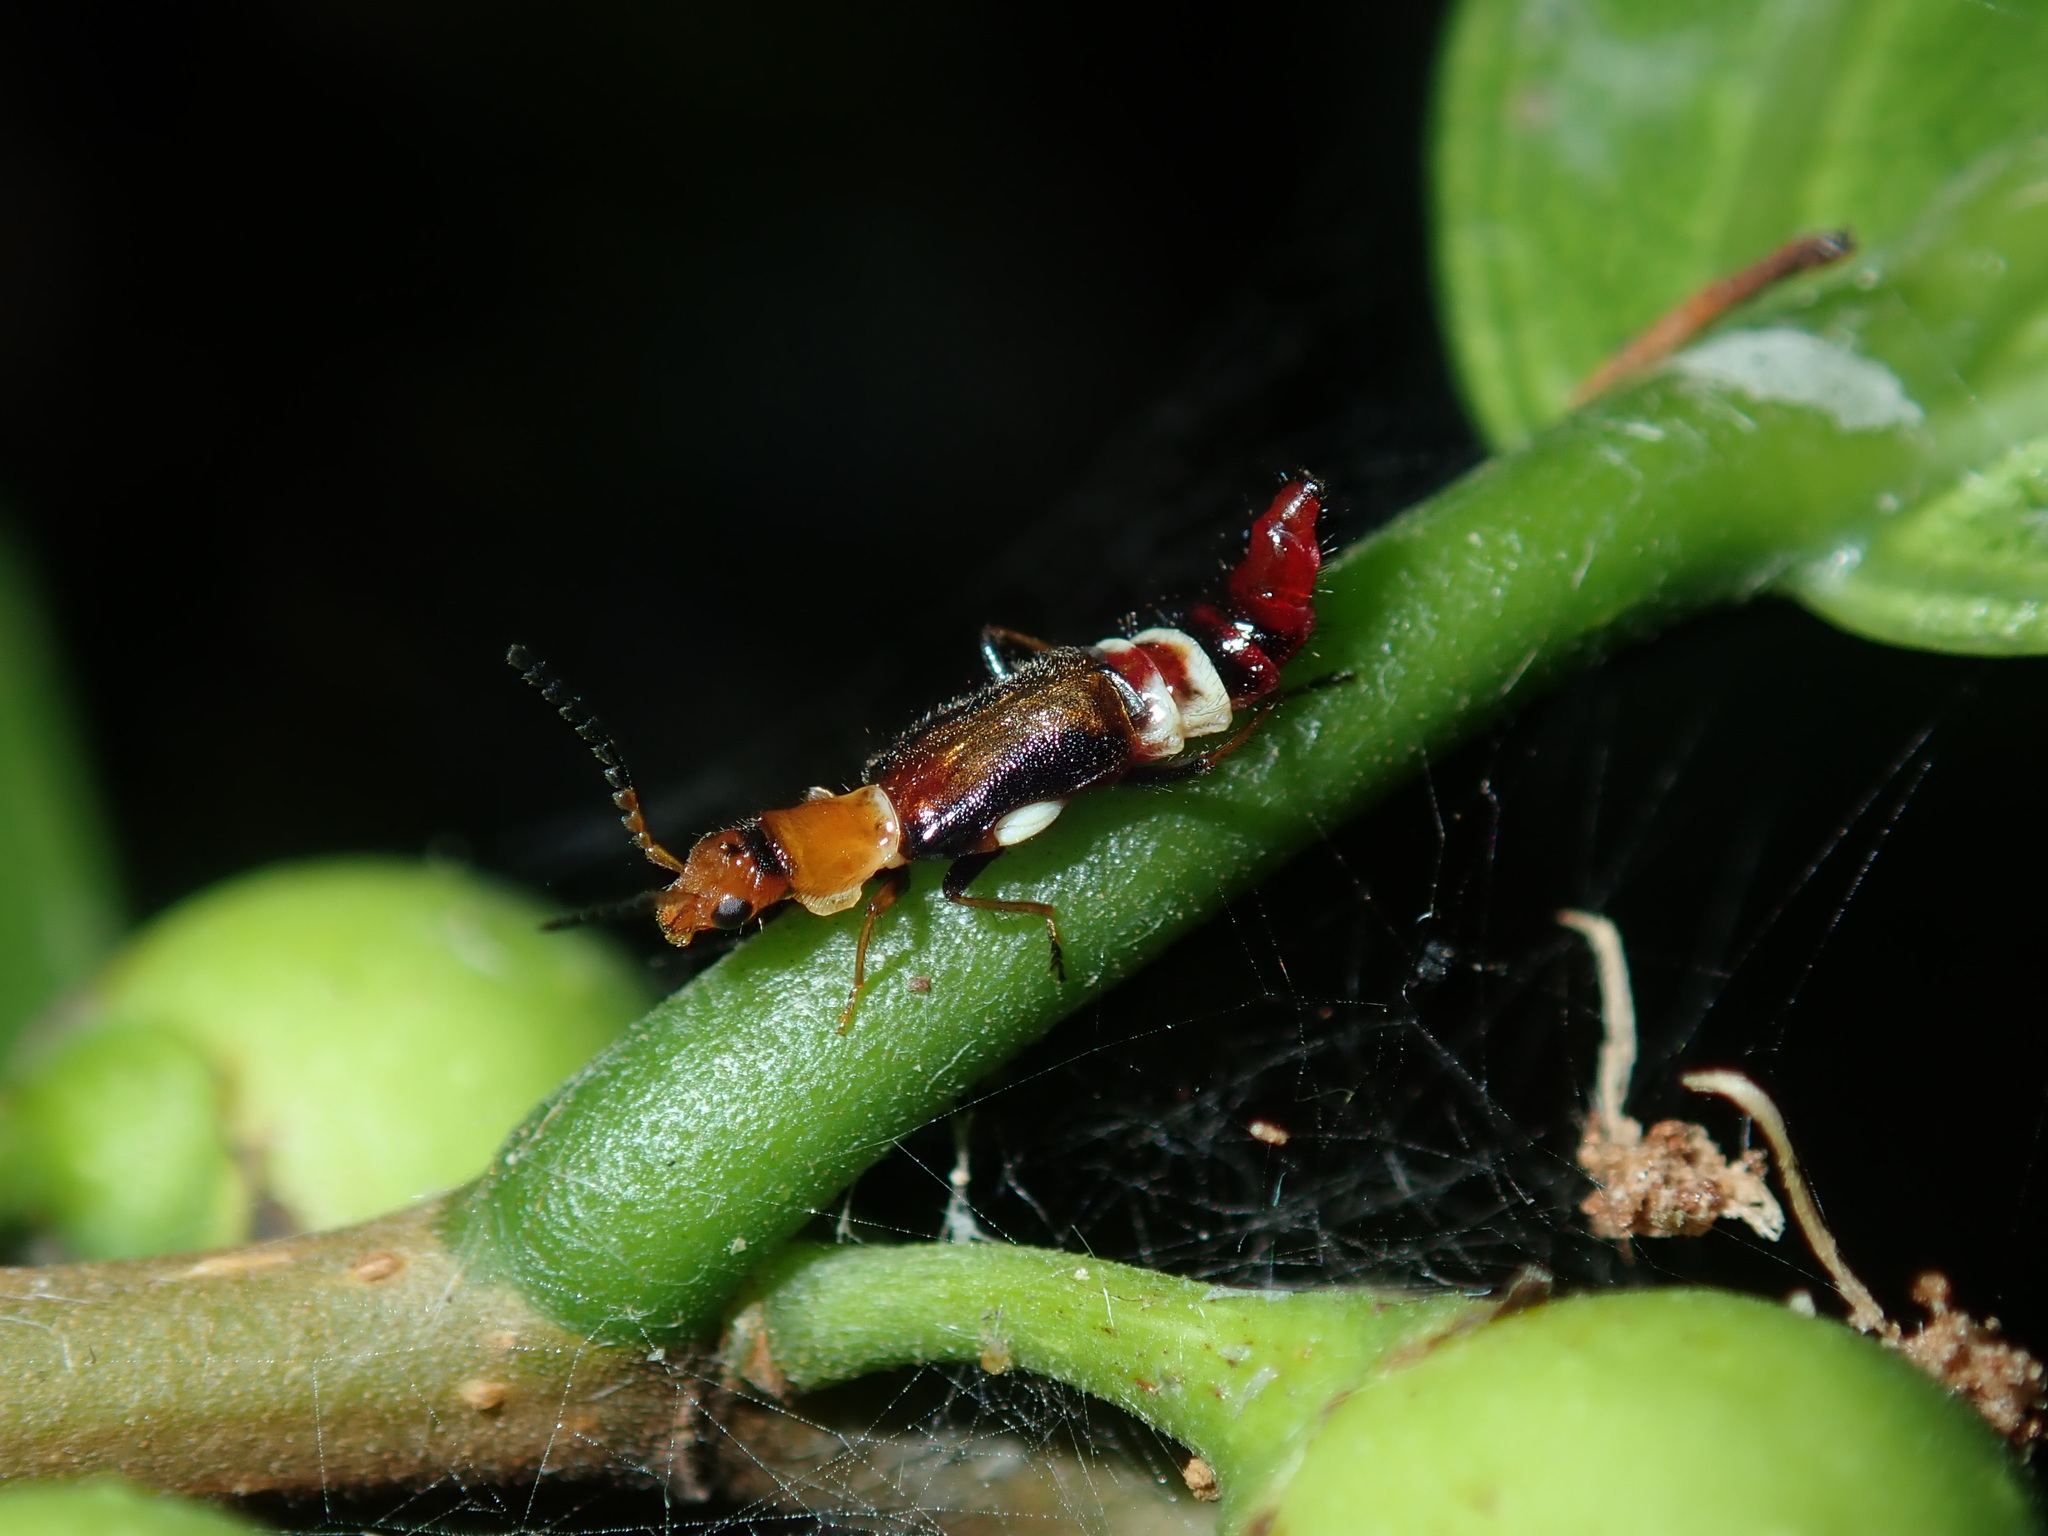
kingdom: Animalia
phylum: Arthropoda
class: Insecta
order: Coleoptera
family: Melyridae
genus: Carphurus
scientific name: Carphurus
